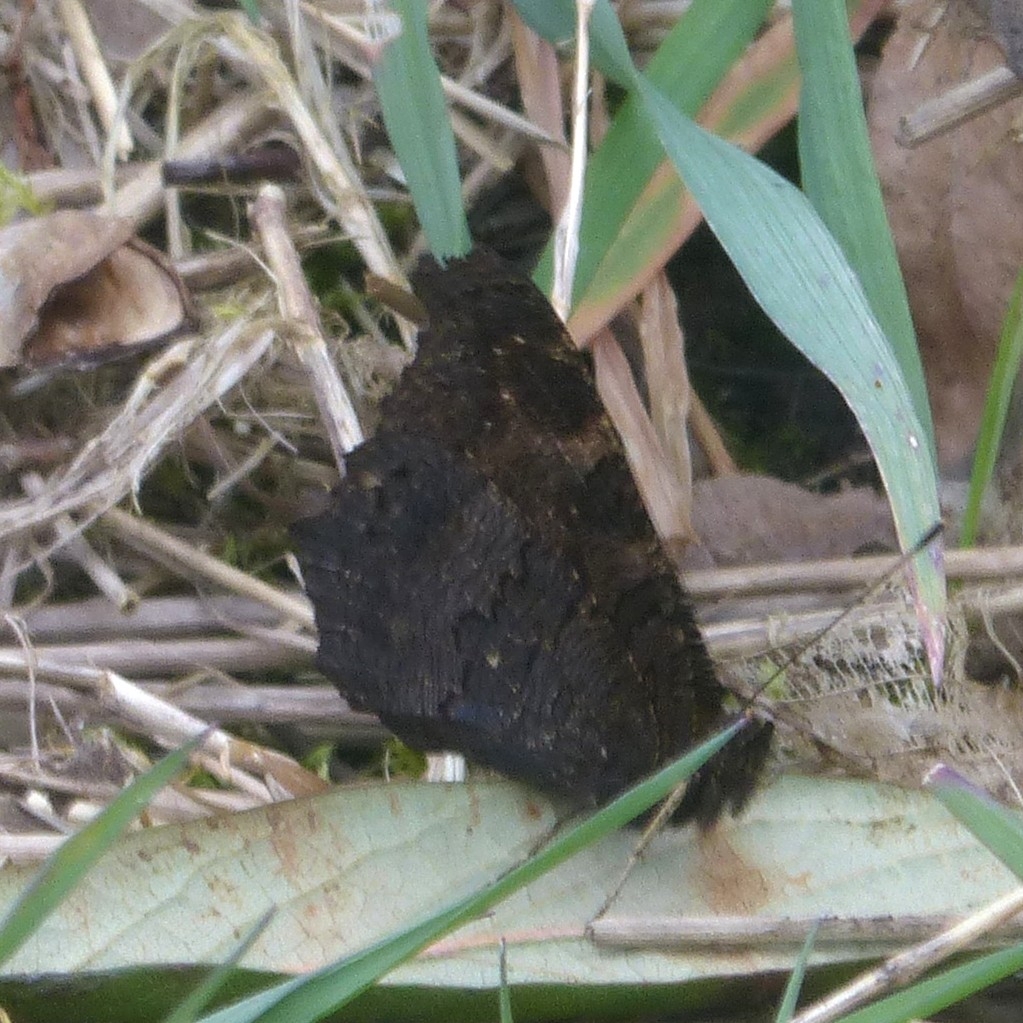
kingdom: Animalia
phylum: Arthropoda
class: Insecta
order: Lepidoptera
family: Nymphalidae
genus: Aglais
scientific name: Aglais io
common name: Peacock
